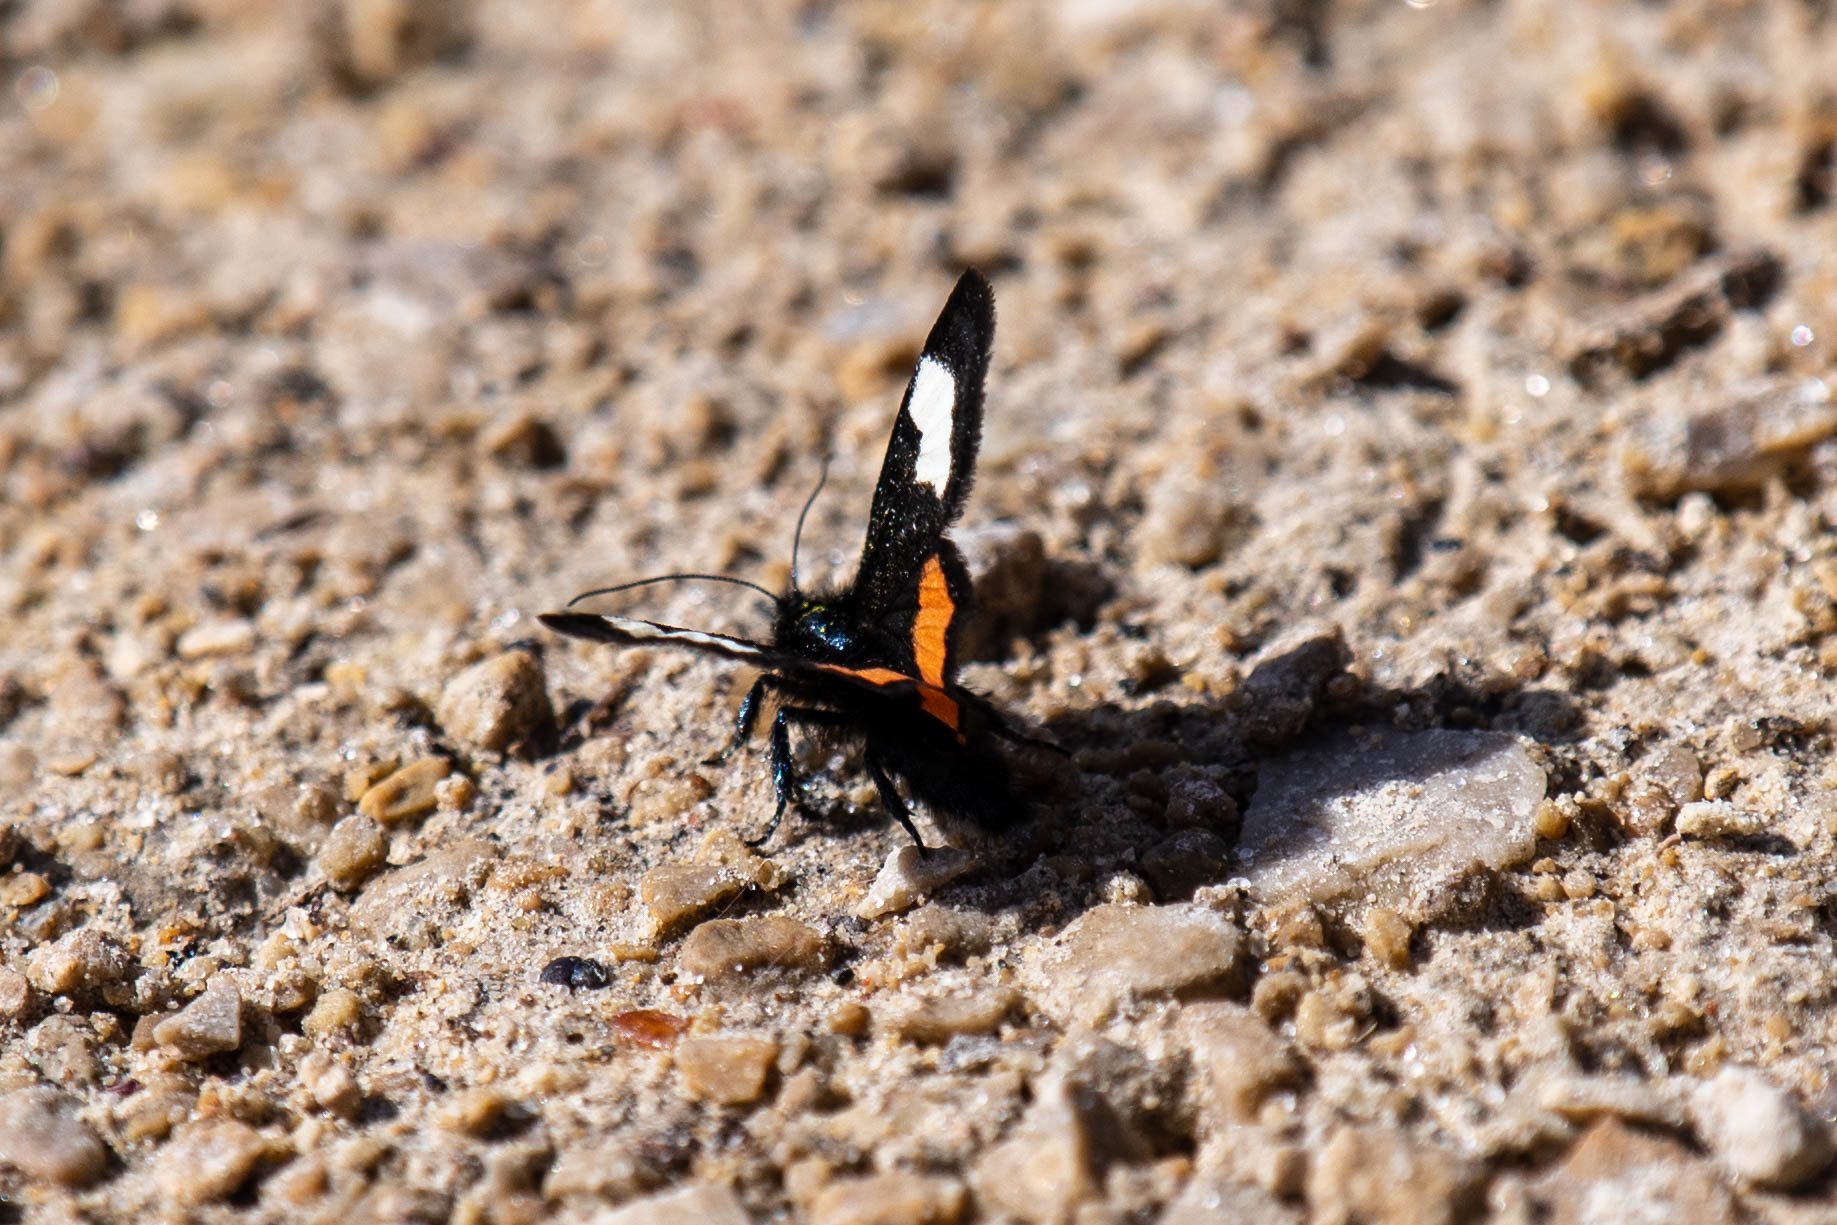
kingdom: Animalia
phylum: Arthropoda
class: Insecta
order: Lepidoptera
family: Noctuidae
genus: Psychomorpha
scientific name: Psychomorpha epimenis
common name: Grapevine epimenis moth
